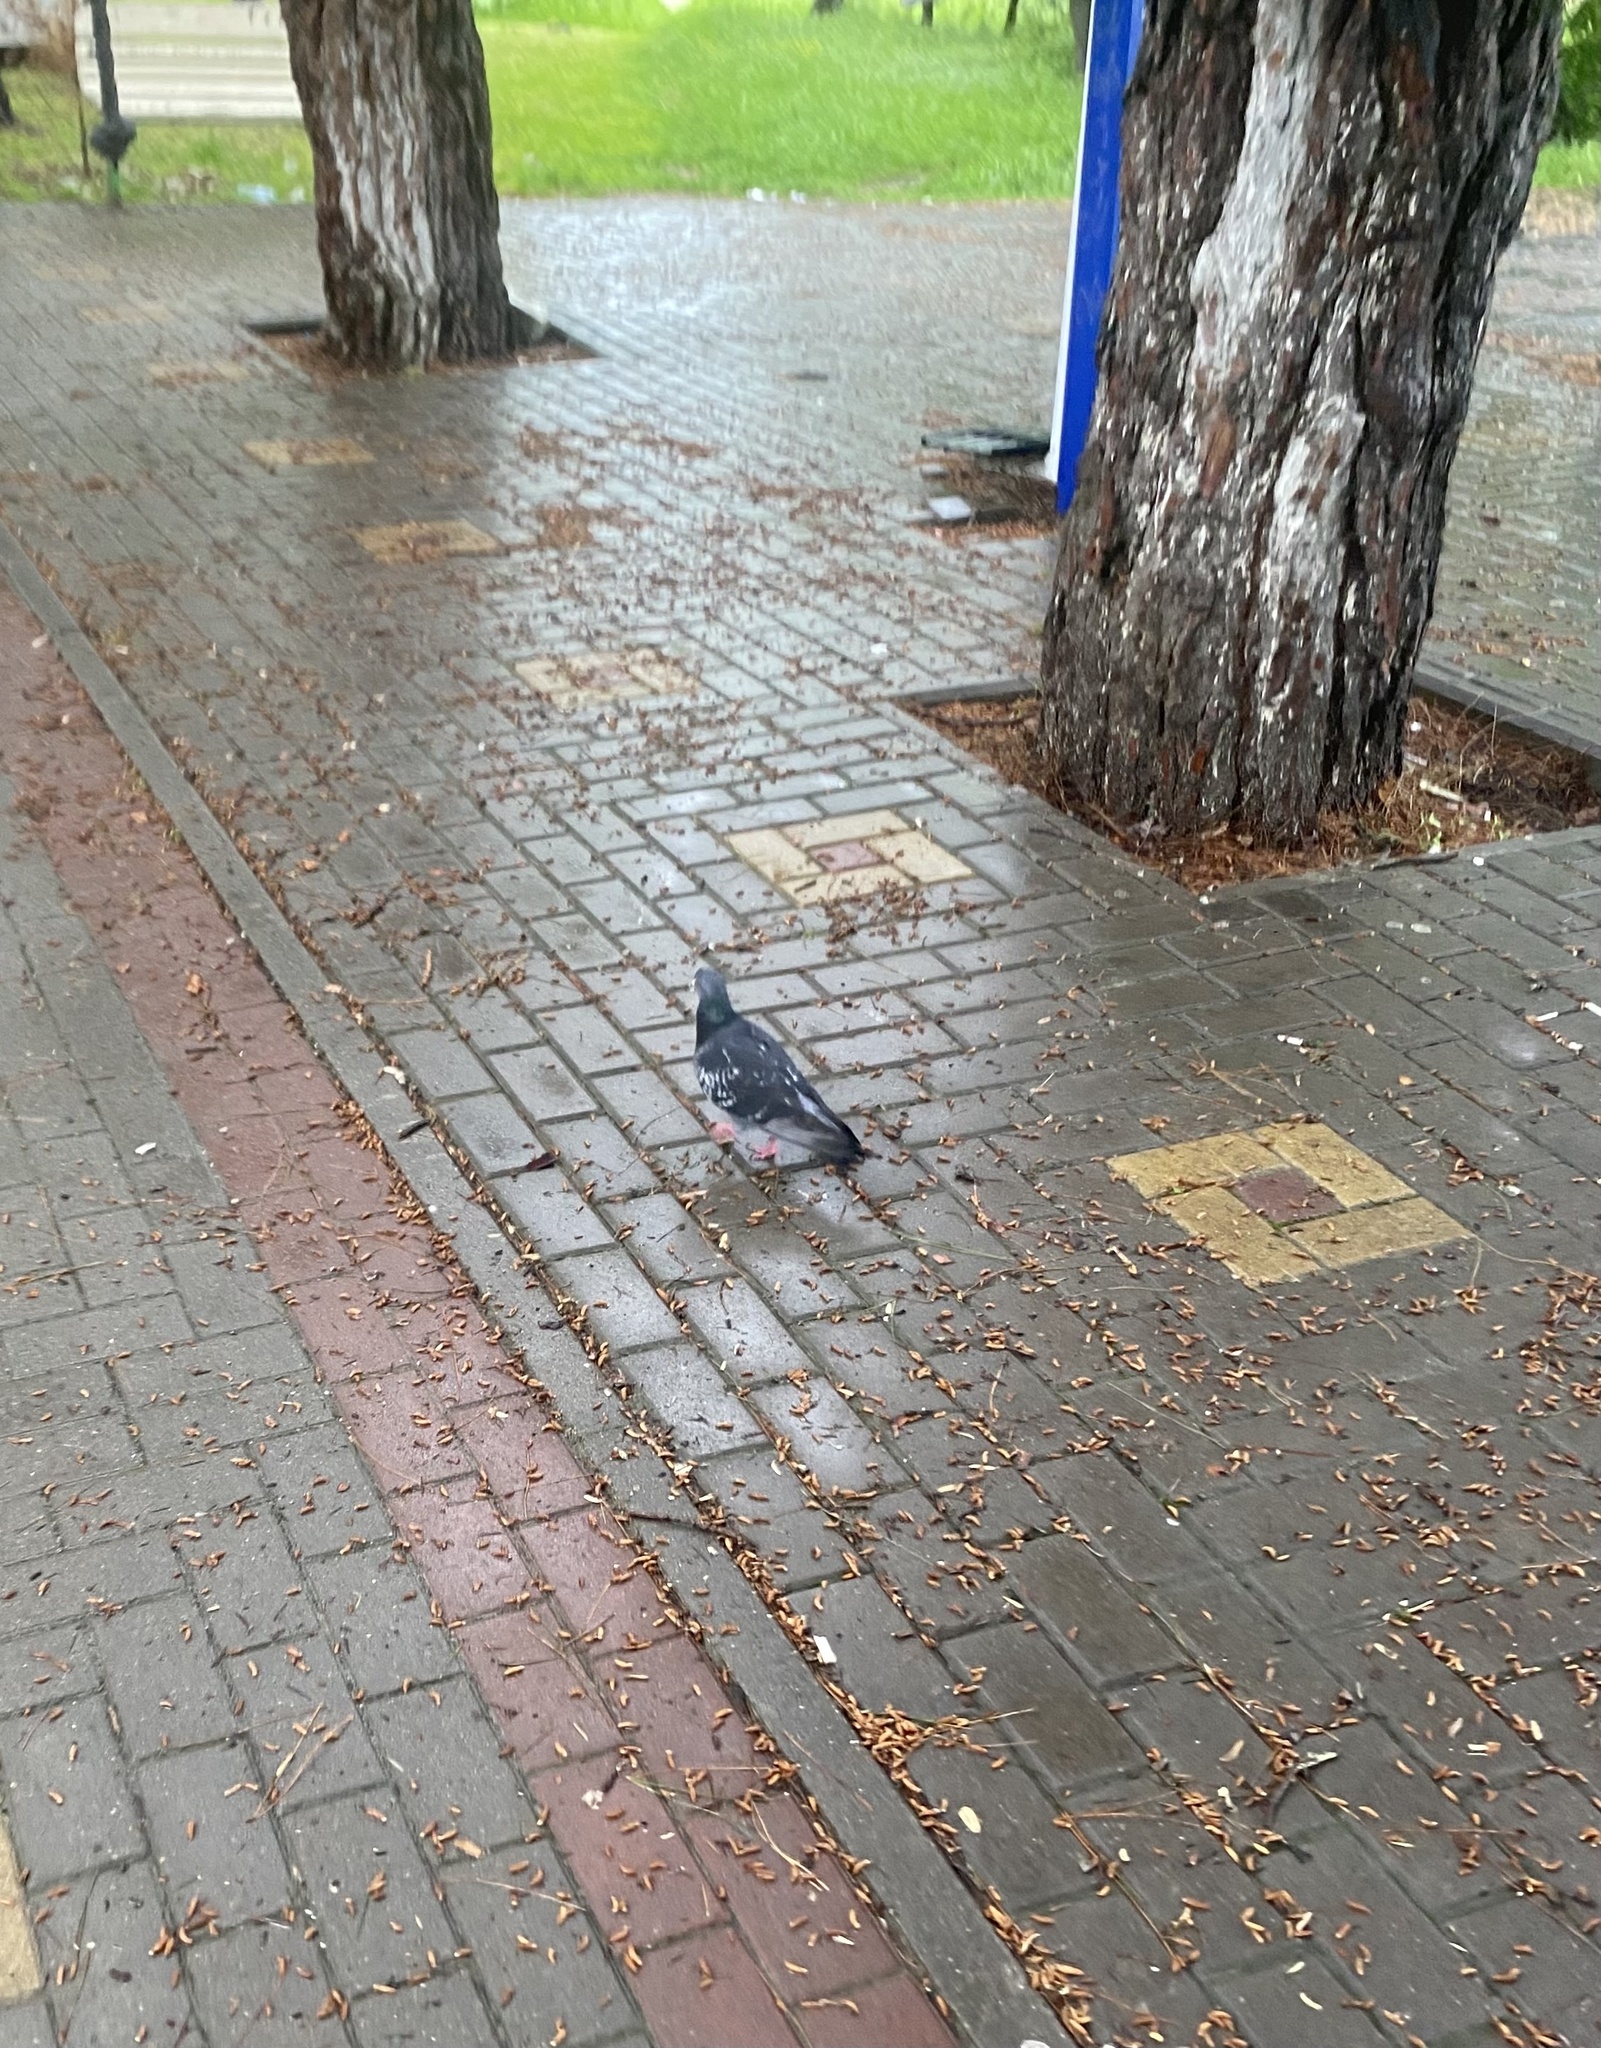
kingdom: Animalia
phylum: Chordata
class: Aves
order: Columbiformes
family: Columbidae
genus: Columba
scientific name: Columba livia
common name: Rock pigeon
